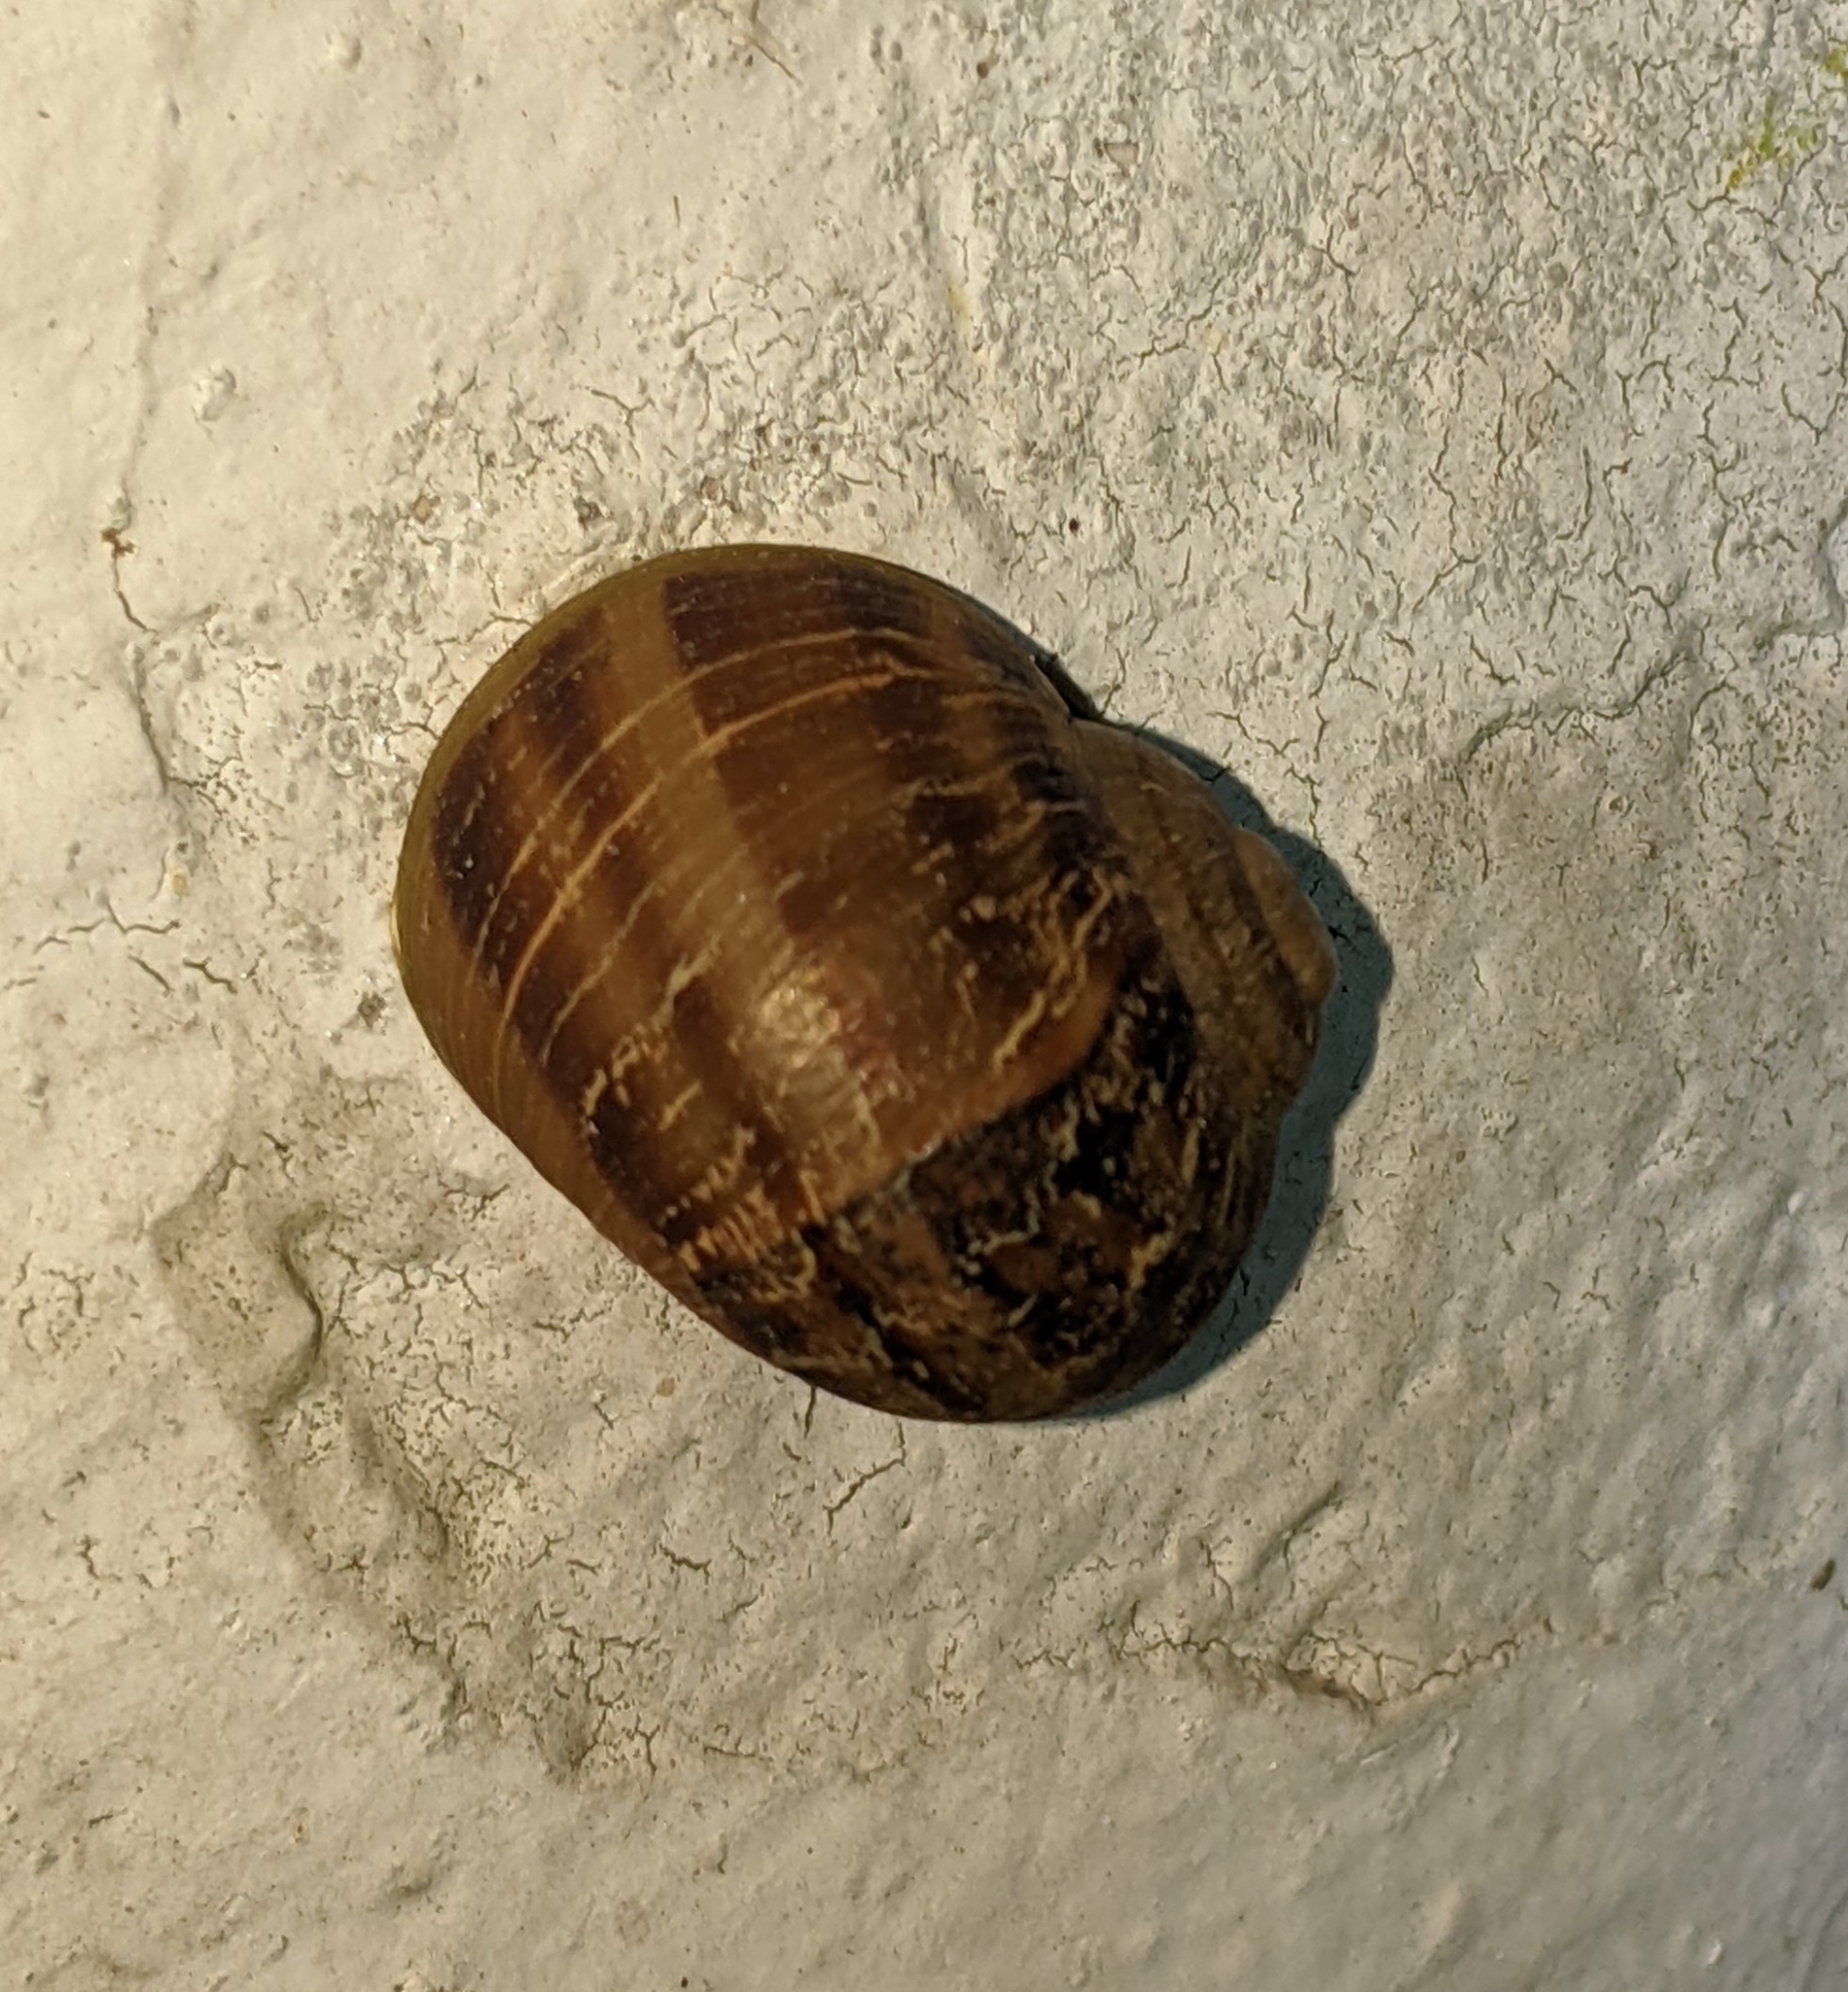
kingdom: Animalia
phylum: Mollusca
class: Gastropoda
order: Stylommatophora
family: Helicidae
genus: Cornu
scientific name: Cornu aspersum
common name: Brown garden snail
